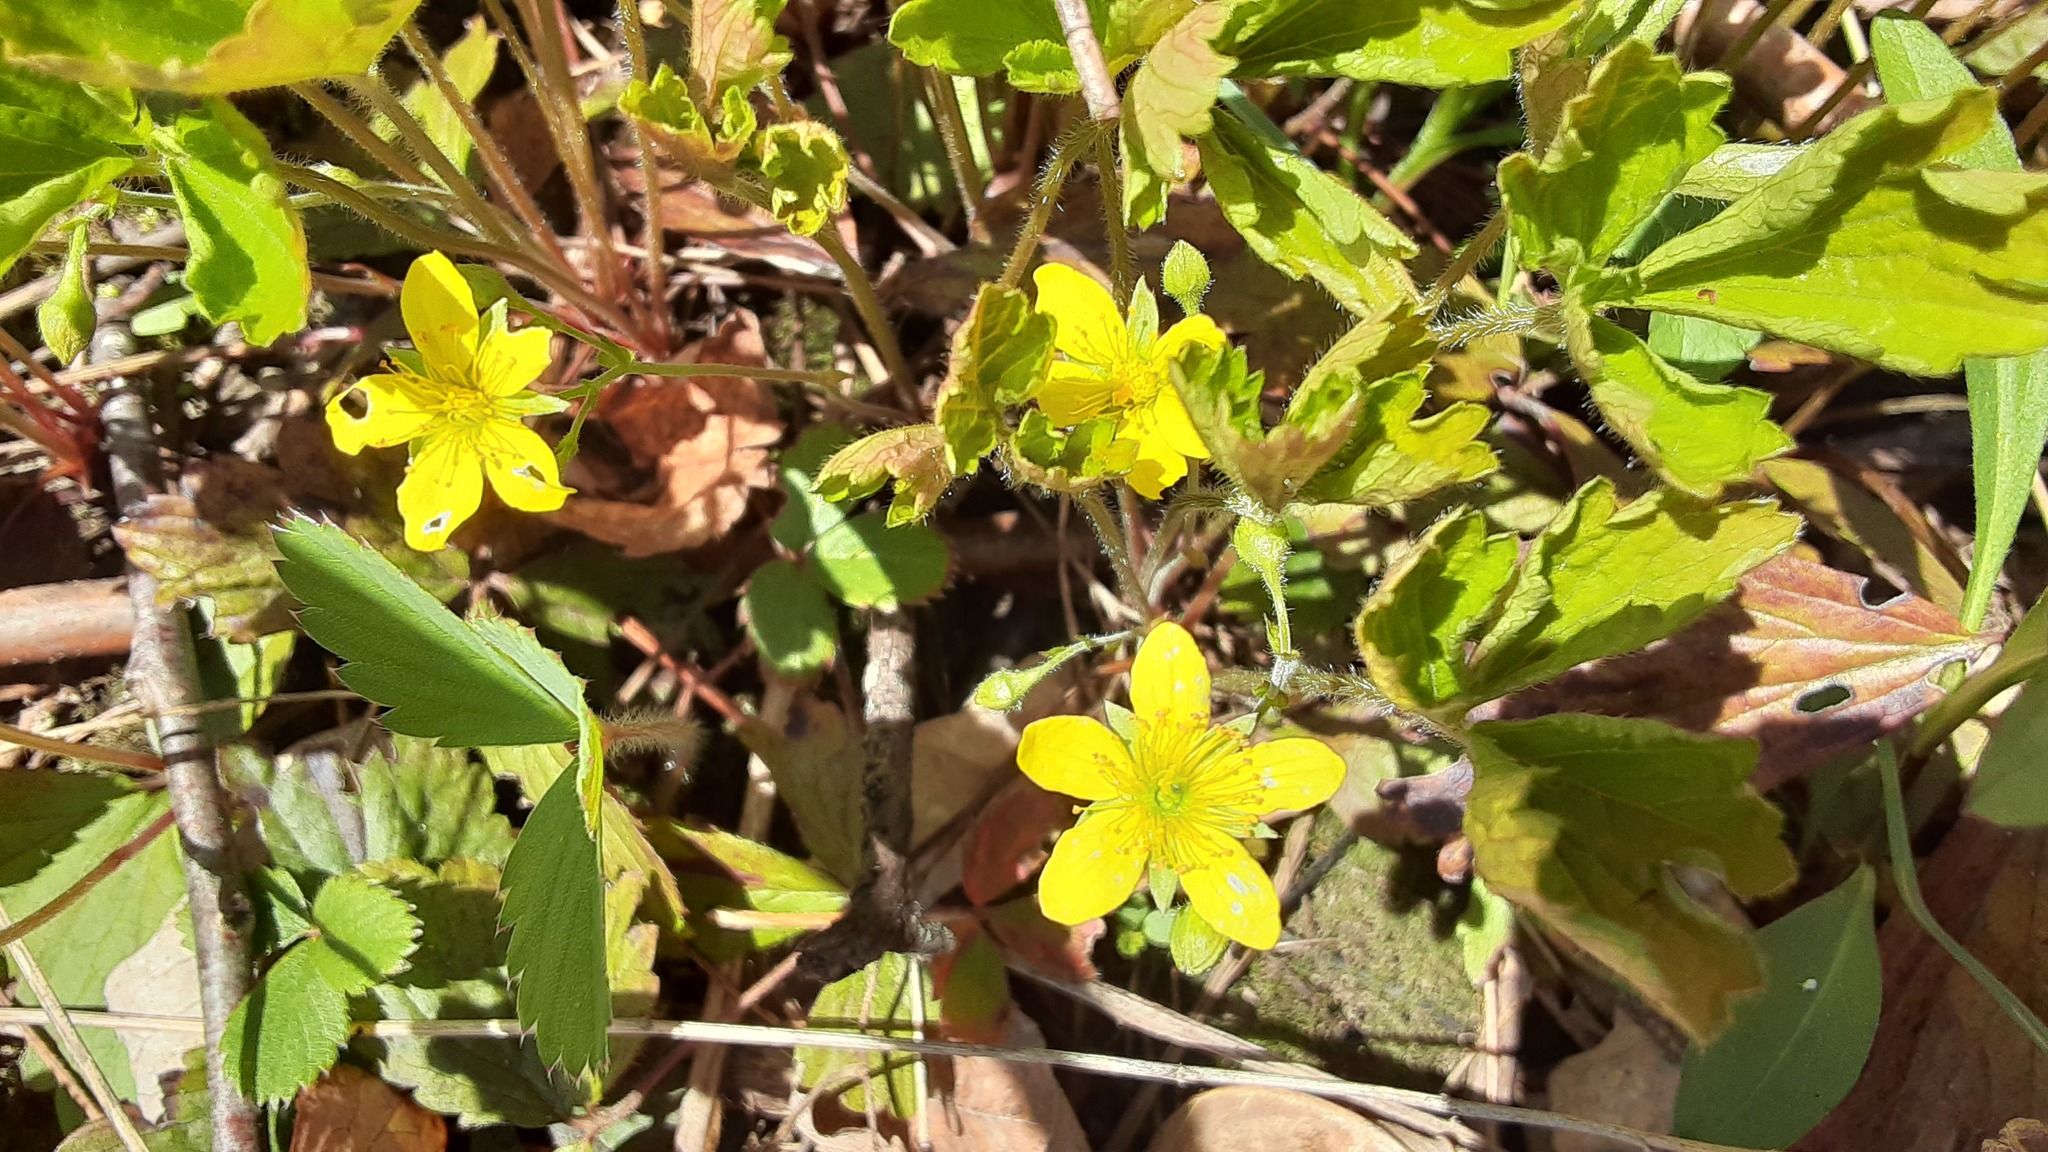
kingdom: Plantae
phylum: Tracheophyta
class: Magnoliopsida
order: Rosales
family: Rosaceae
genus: Geum
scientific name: Geum fragarioides
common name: Appalachian barren strawberry
